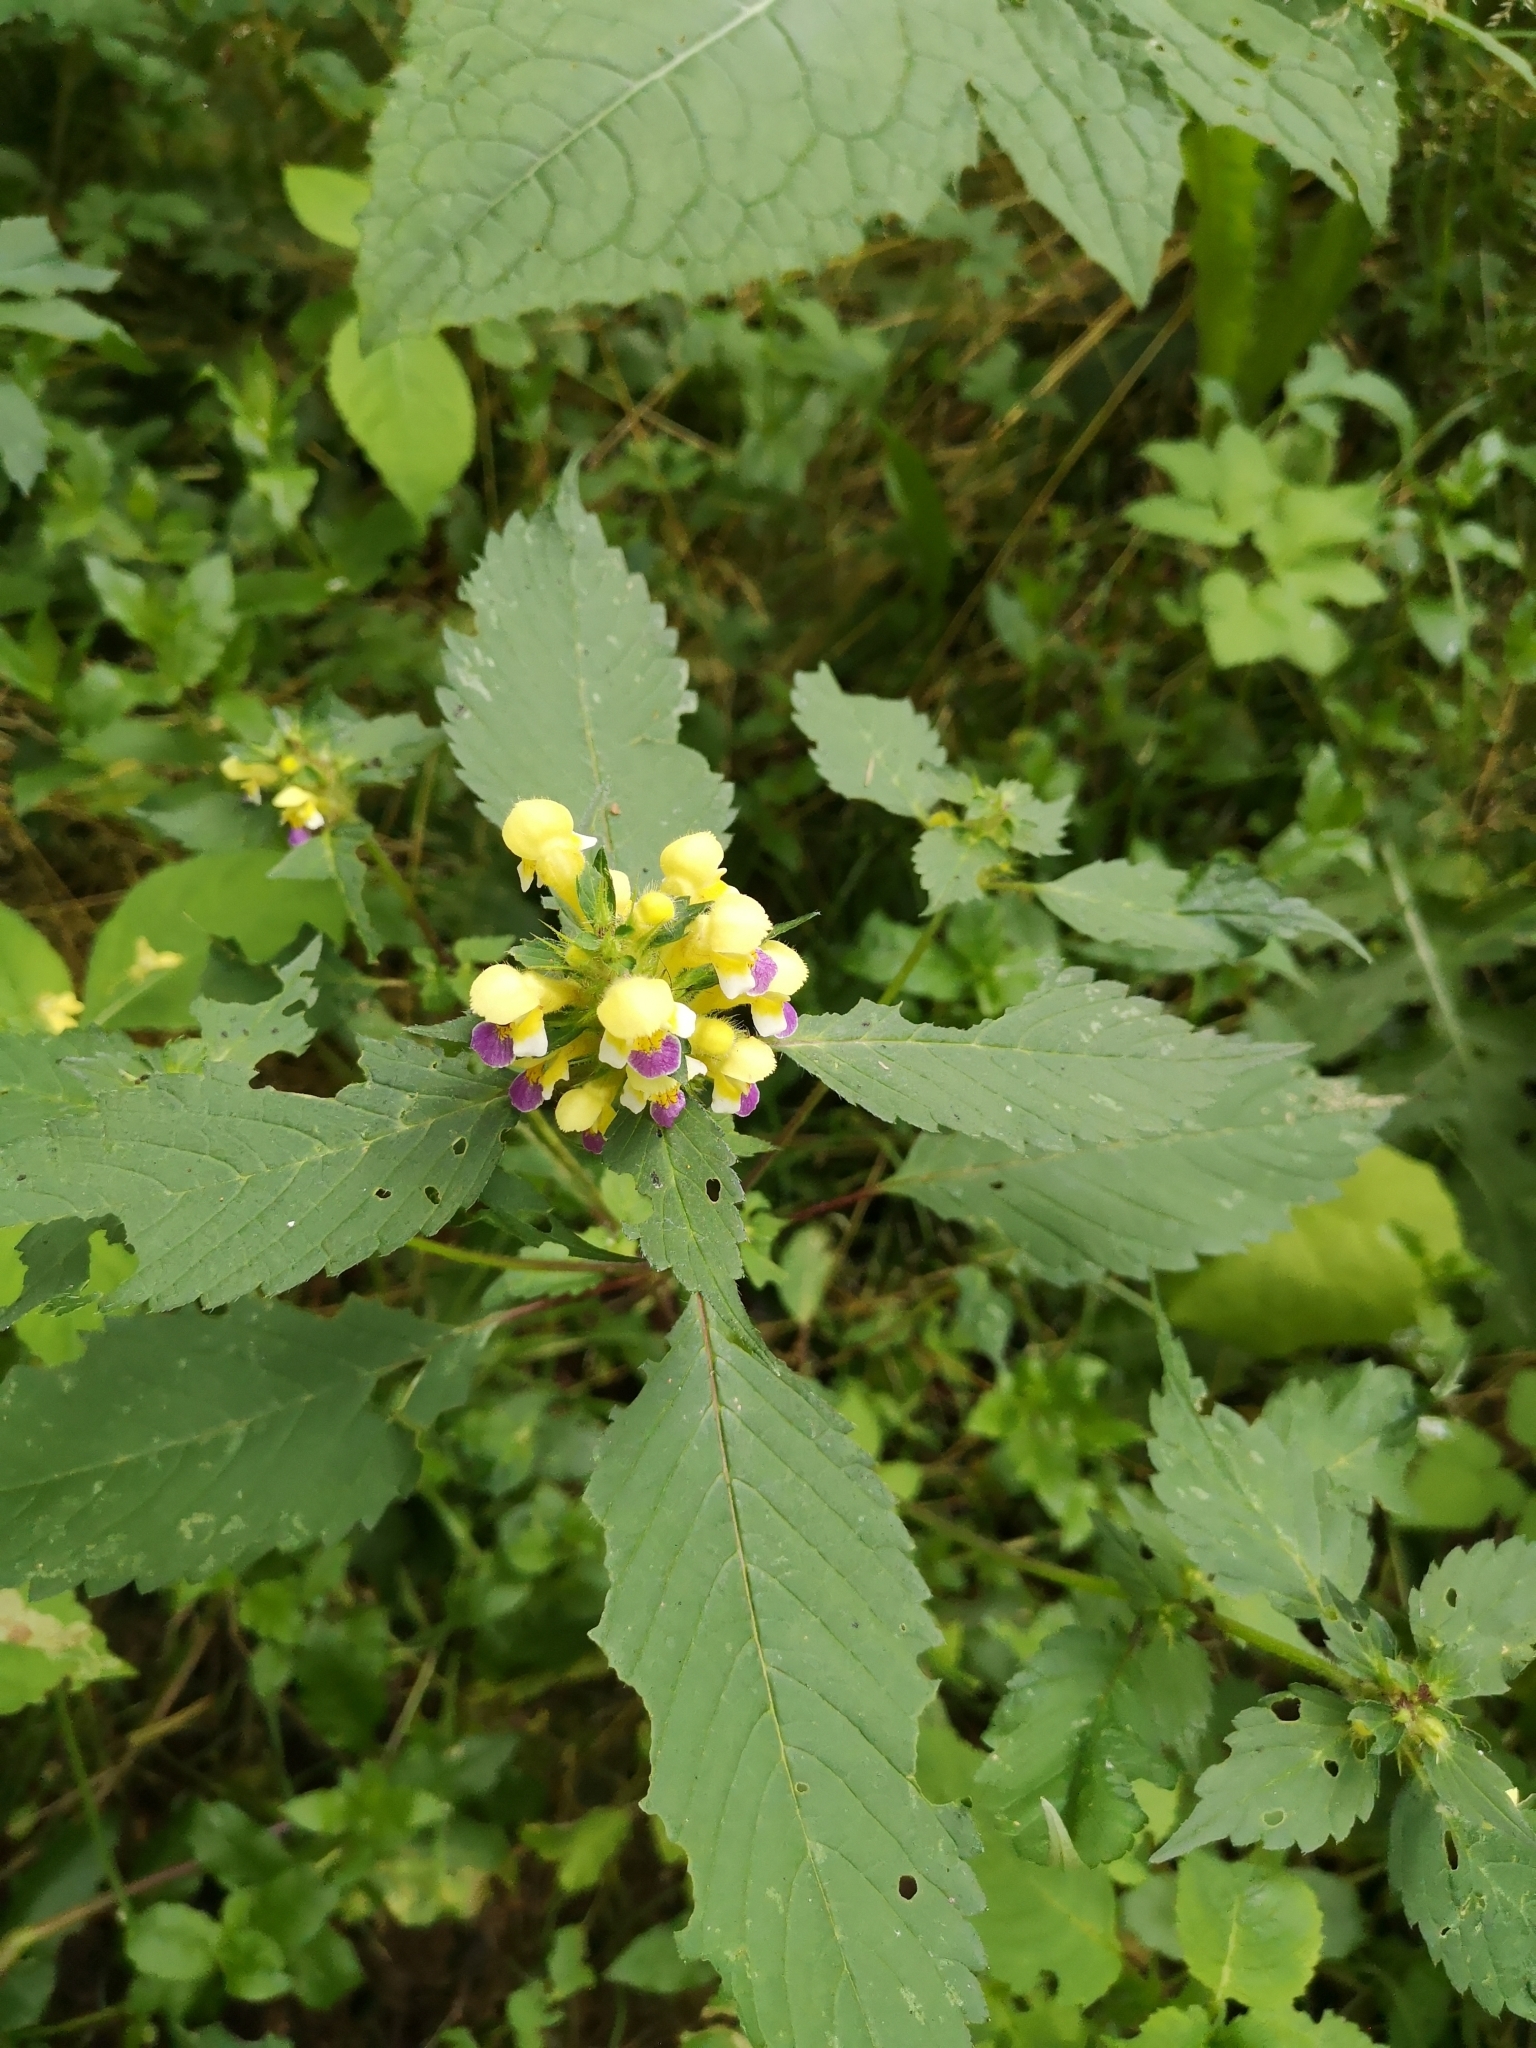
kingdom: Plantae
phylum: Tracheophyta
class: Magnoliopsida
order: Lamiales
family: Lamiaceae
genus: Galeopsis
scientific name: Galeopsis speciosa
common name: Large-flowered hemp-nettle
